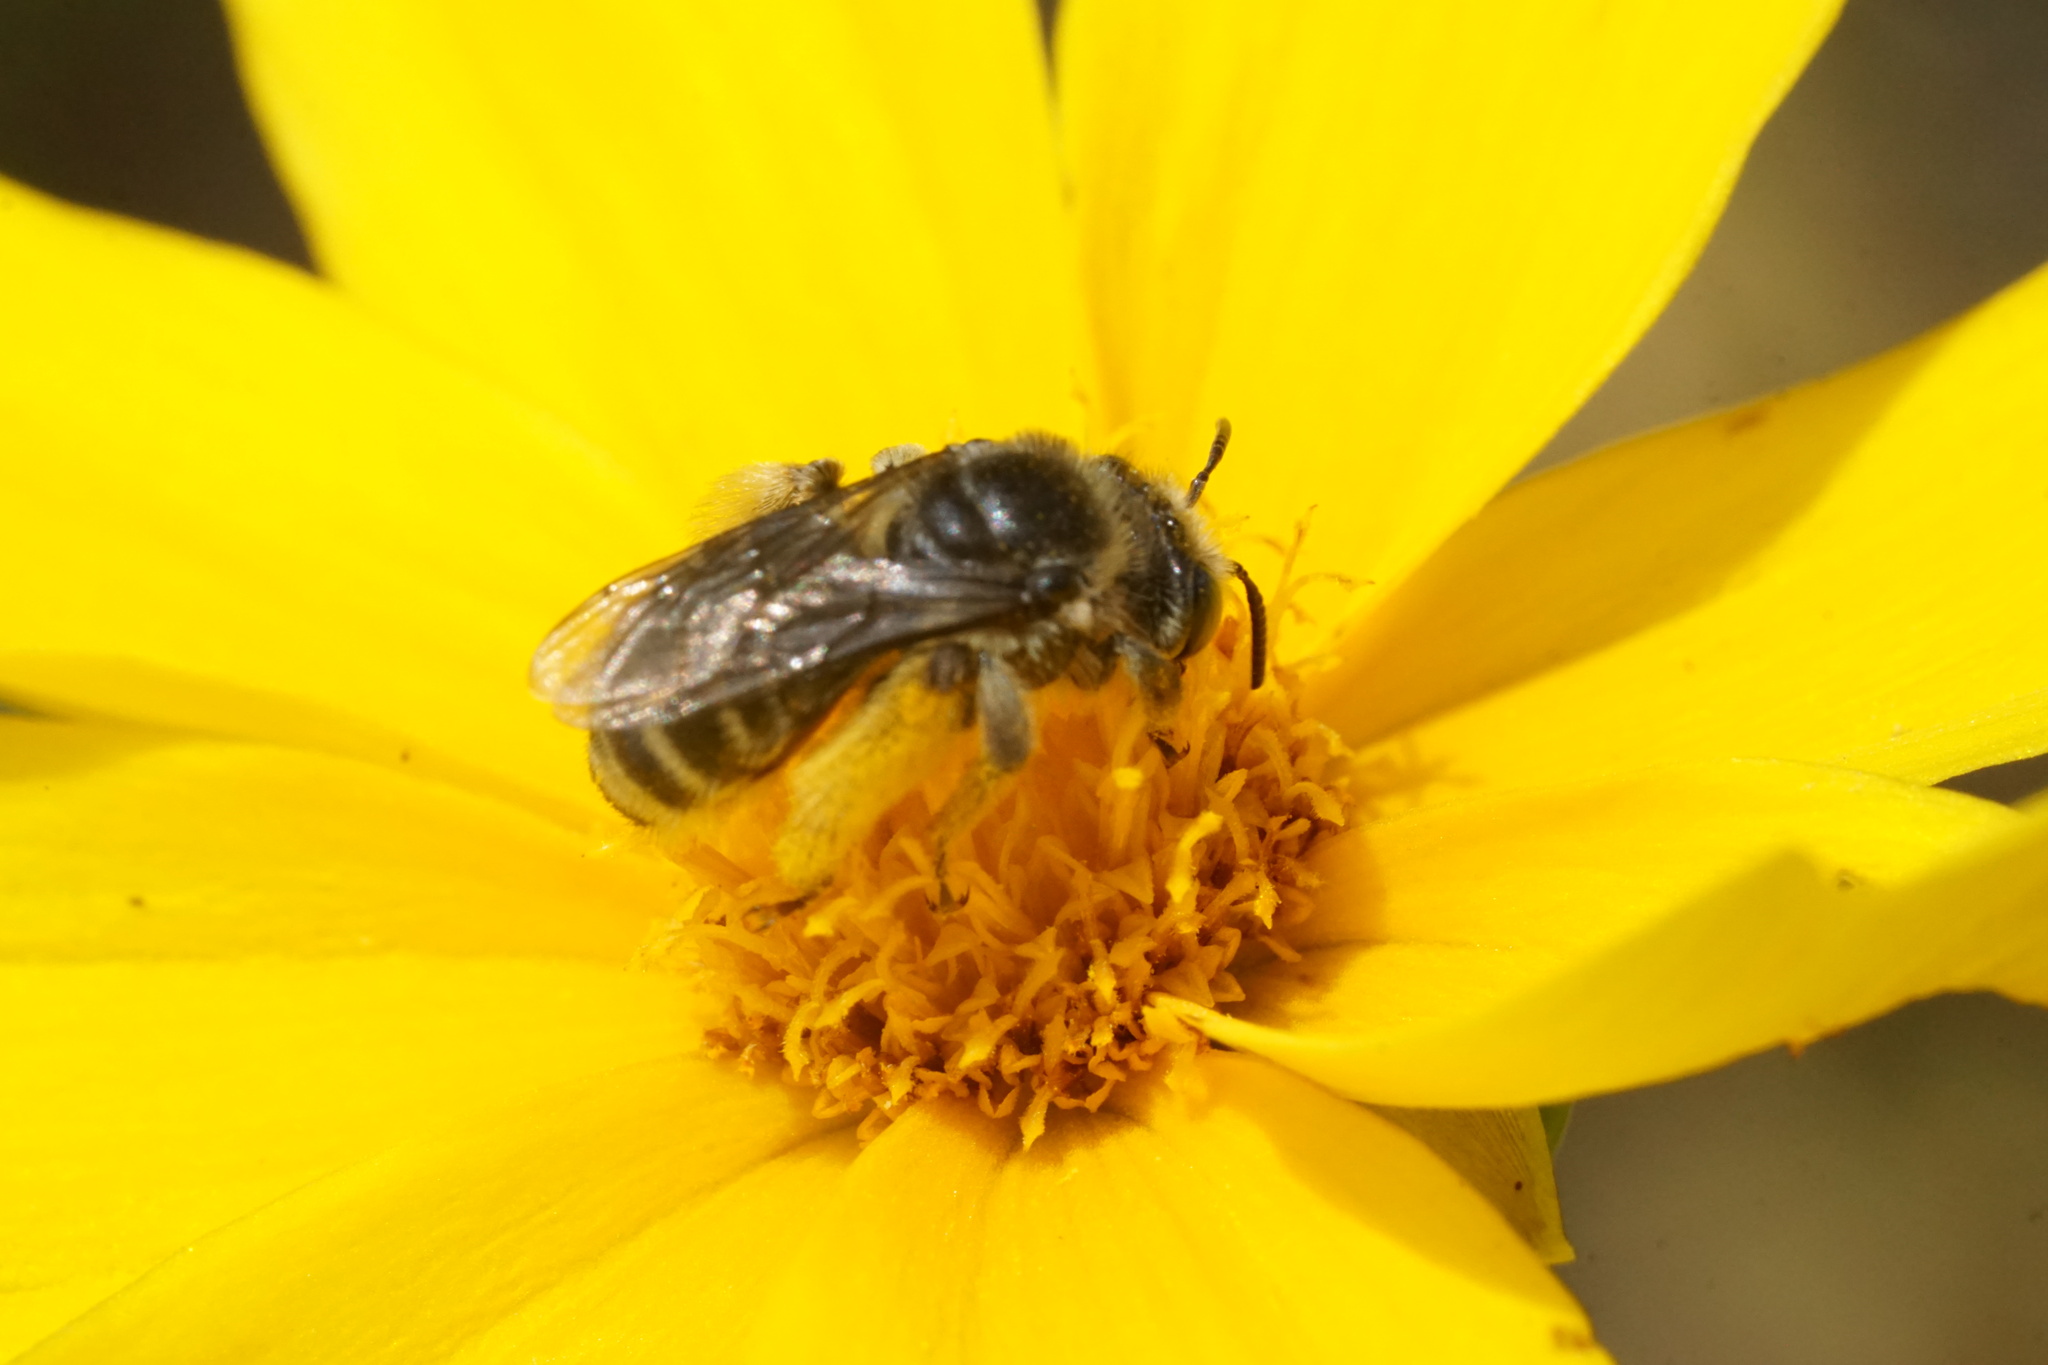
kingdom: Animalia
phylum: Arthropoda
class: Insecta
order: Hymenoptera
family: Apidae
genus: Melissodes
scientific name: Melissodes subillatus
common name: Vigorous long-horned bee
